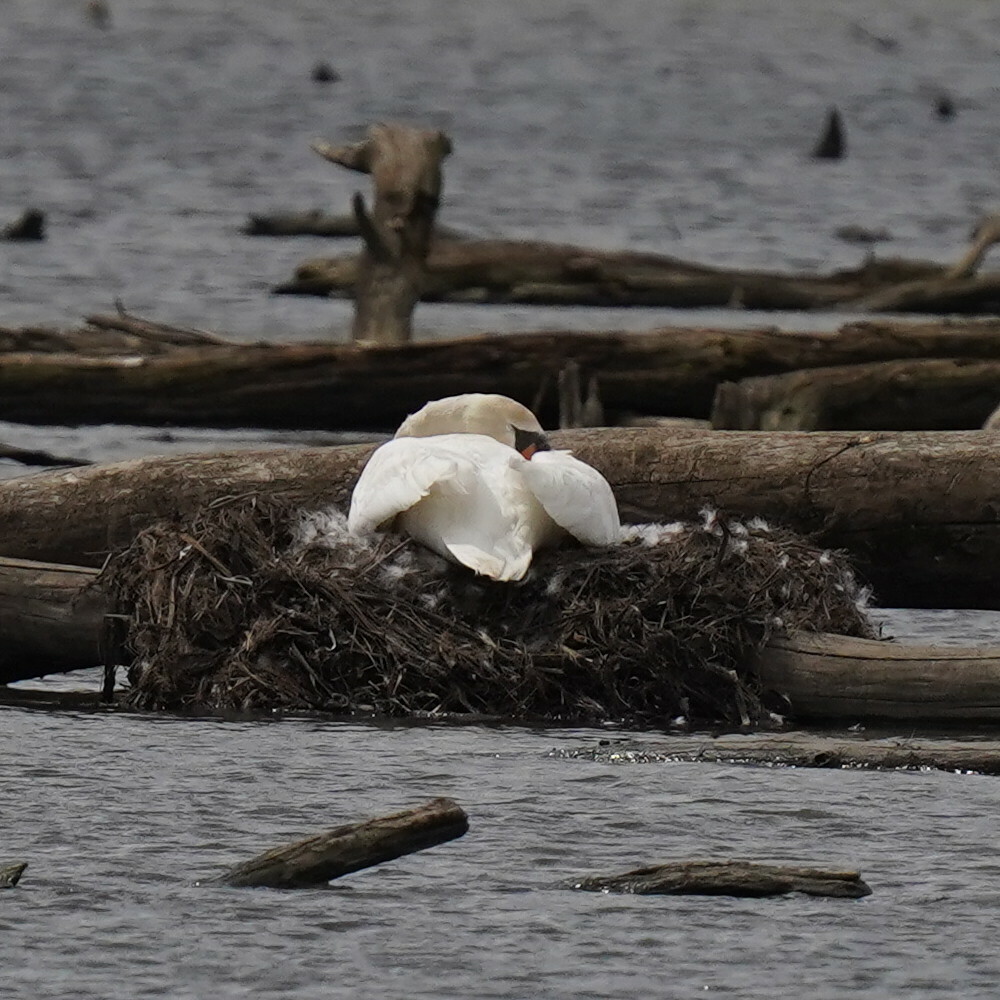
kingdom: Animalia
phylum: Chordata
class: Aves
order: Anseriformes
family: Anatidae
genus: Cygnus
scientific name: Cygnus olor
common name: Mute swan
